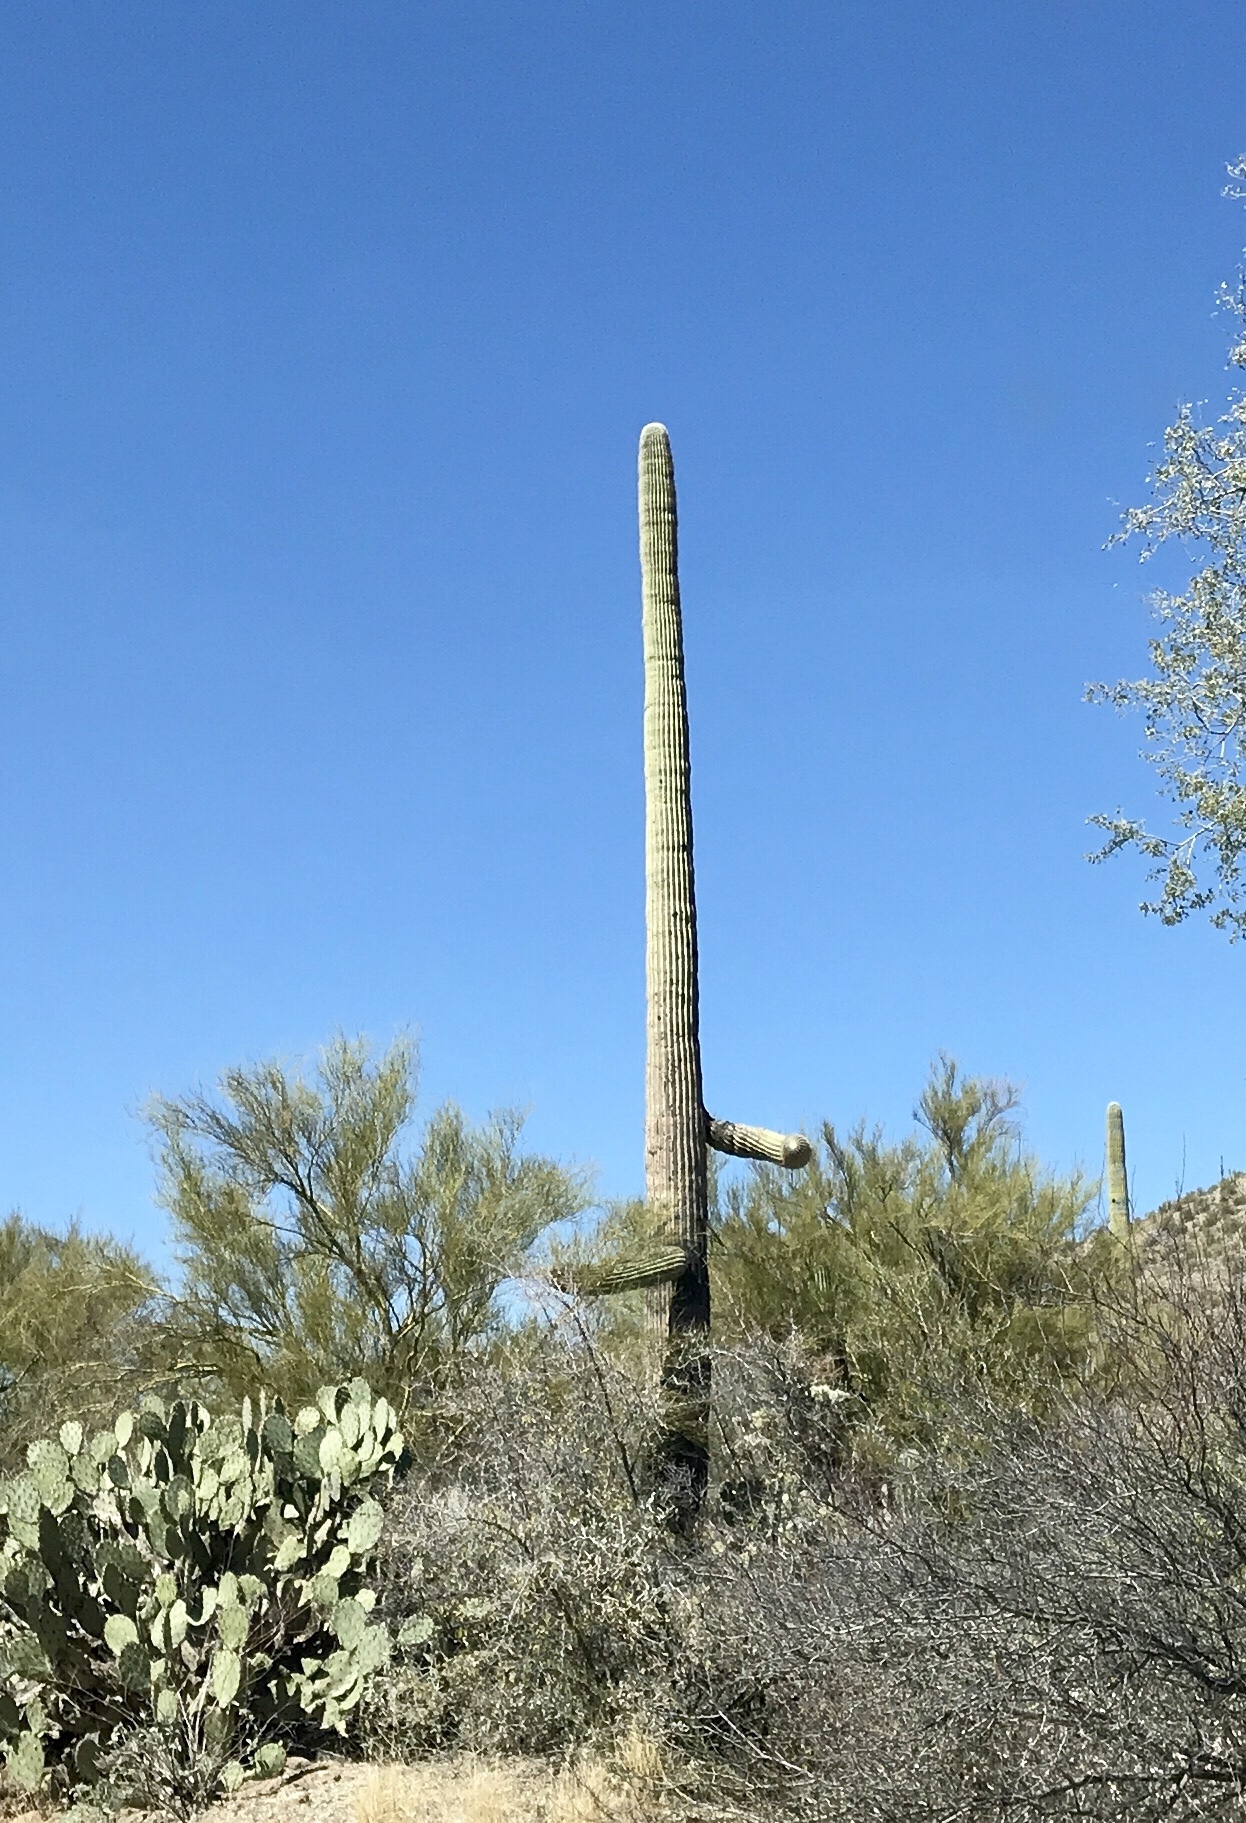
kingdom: Plantae
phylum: Tracheophyta
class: Magnoliopsida
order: Caryophyllales
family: Cactaceae
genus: Carnegiea
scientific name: Carnegiea gigantea
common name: Saguaro
